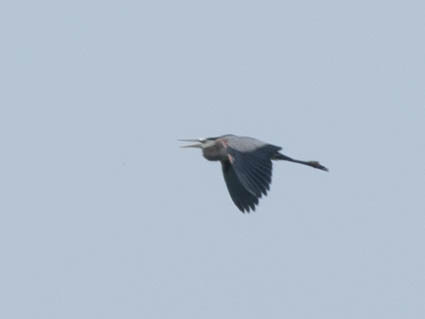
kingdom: Animalia
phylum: Chordata
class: Aves
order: Pelecaniformes
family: Ardeidae
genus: Ardea
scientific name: Ardea herodias
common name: Great blue heron
